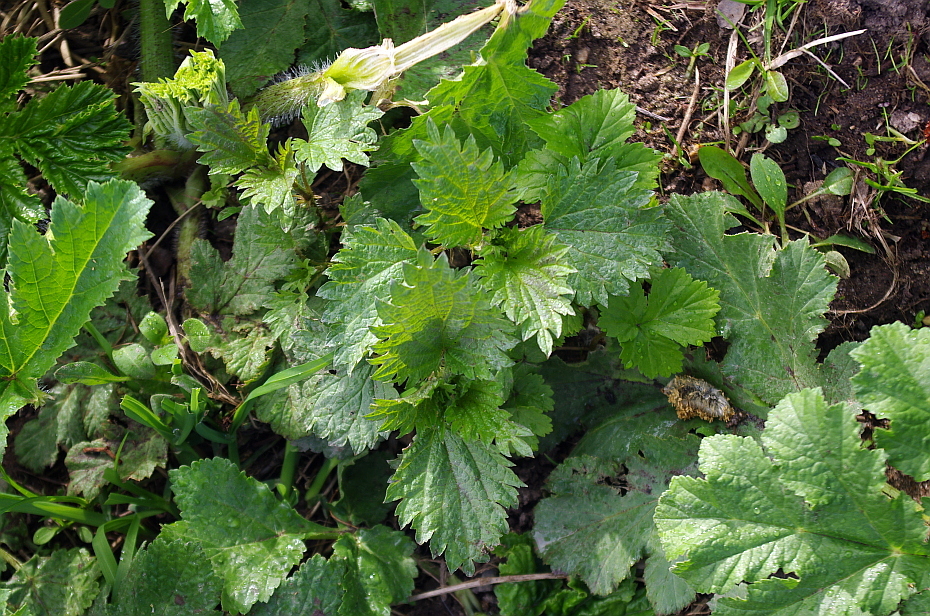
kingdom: Plantae
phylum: Tracheophyta
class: Magnoliopsida
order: Rosales
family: Urticaceae
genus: Urtica
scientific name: Urtica dioica
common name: Common nettle
